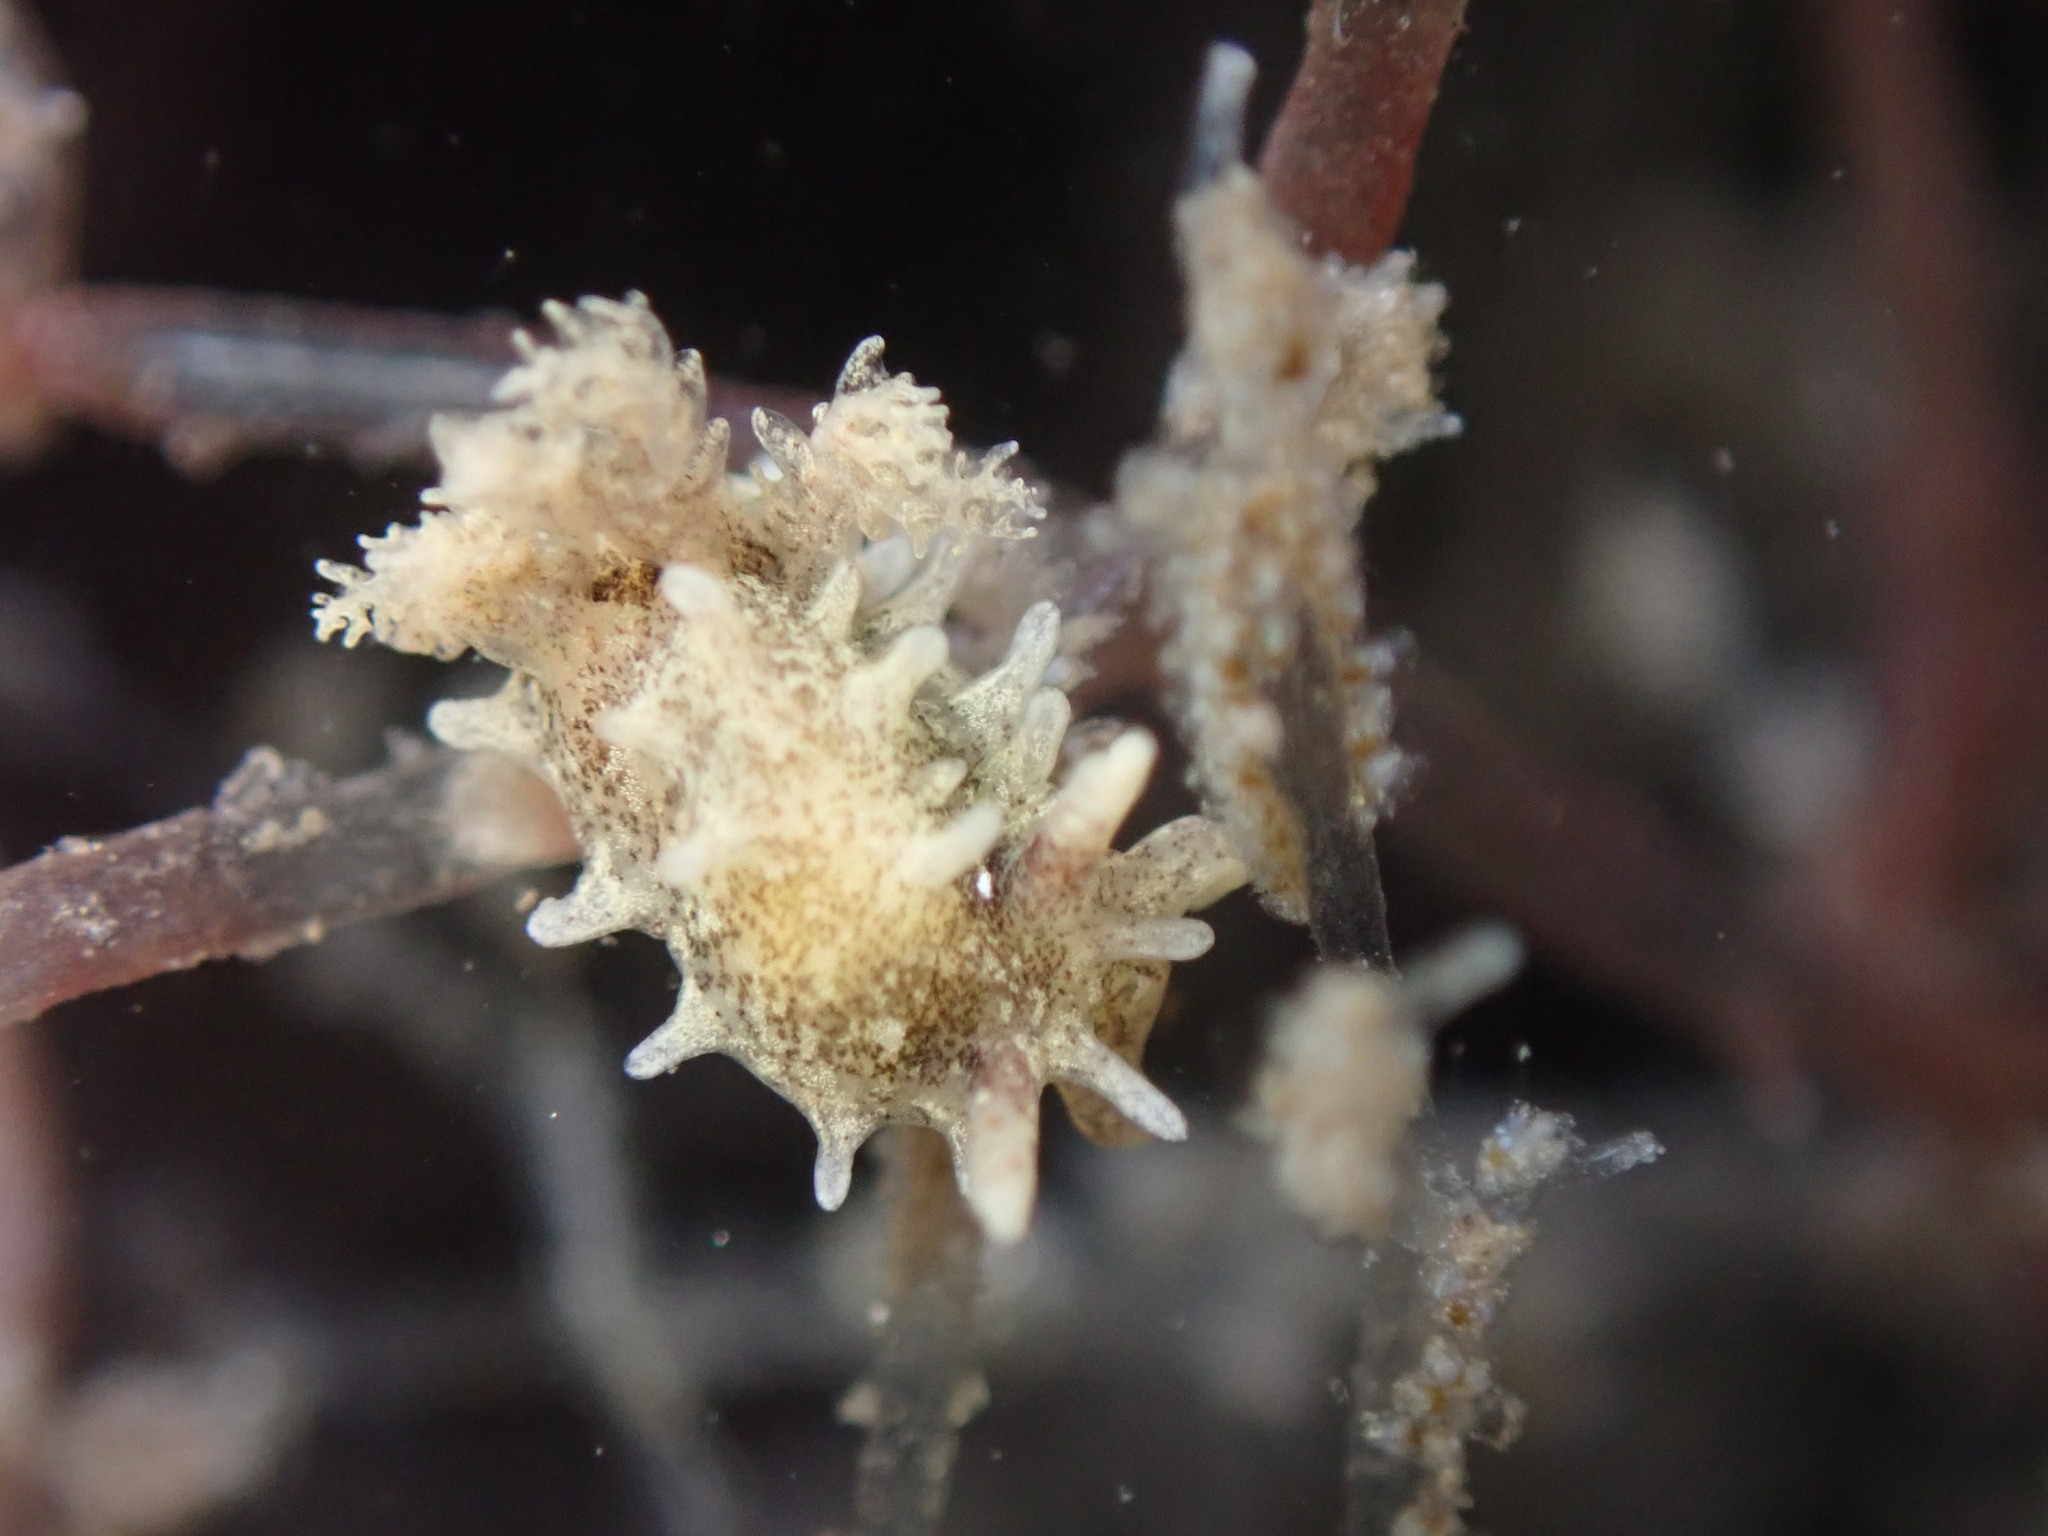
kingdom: Animalia
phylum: Mollusca
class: Gastropoda
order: Nudibranchia
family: Goniodorididae
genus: Okenia
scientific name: Okenia
